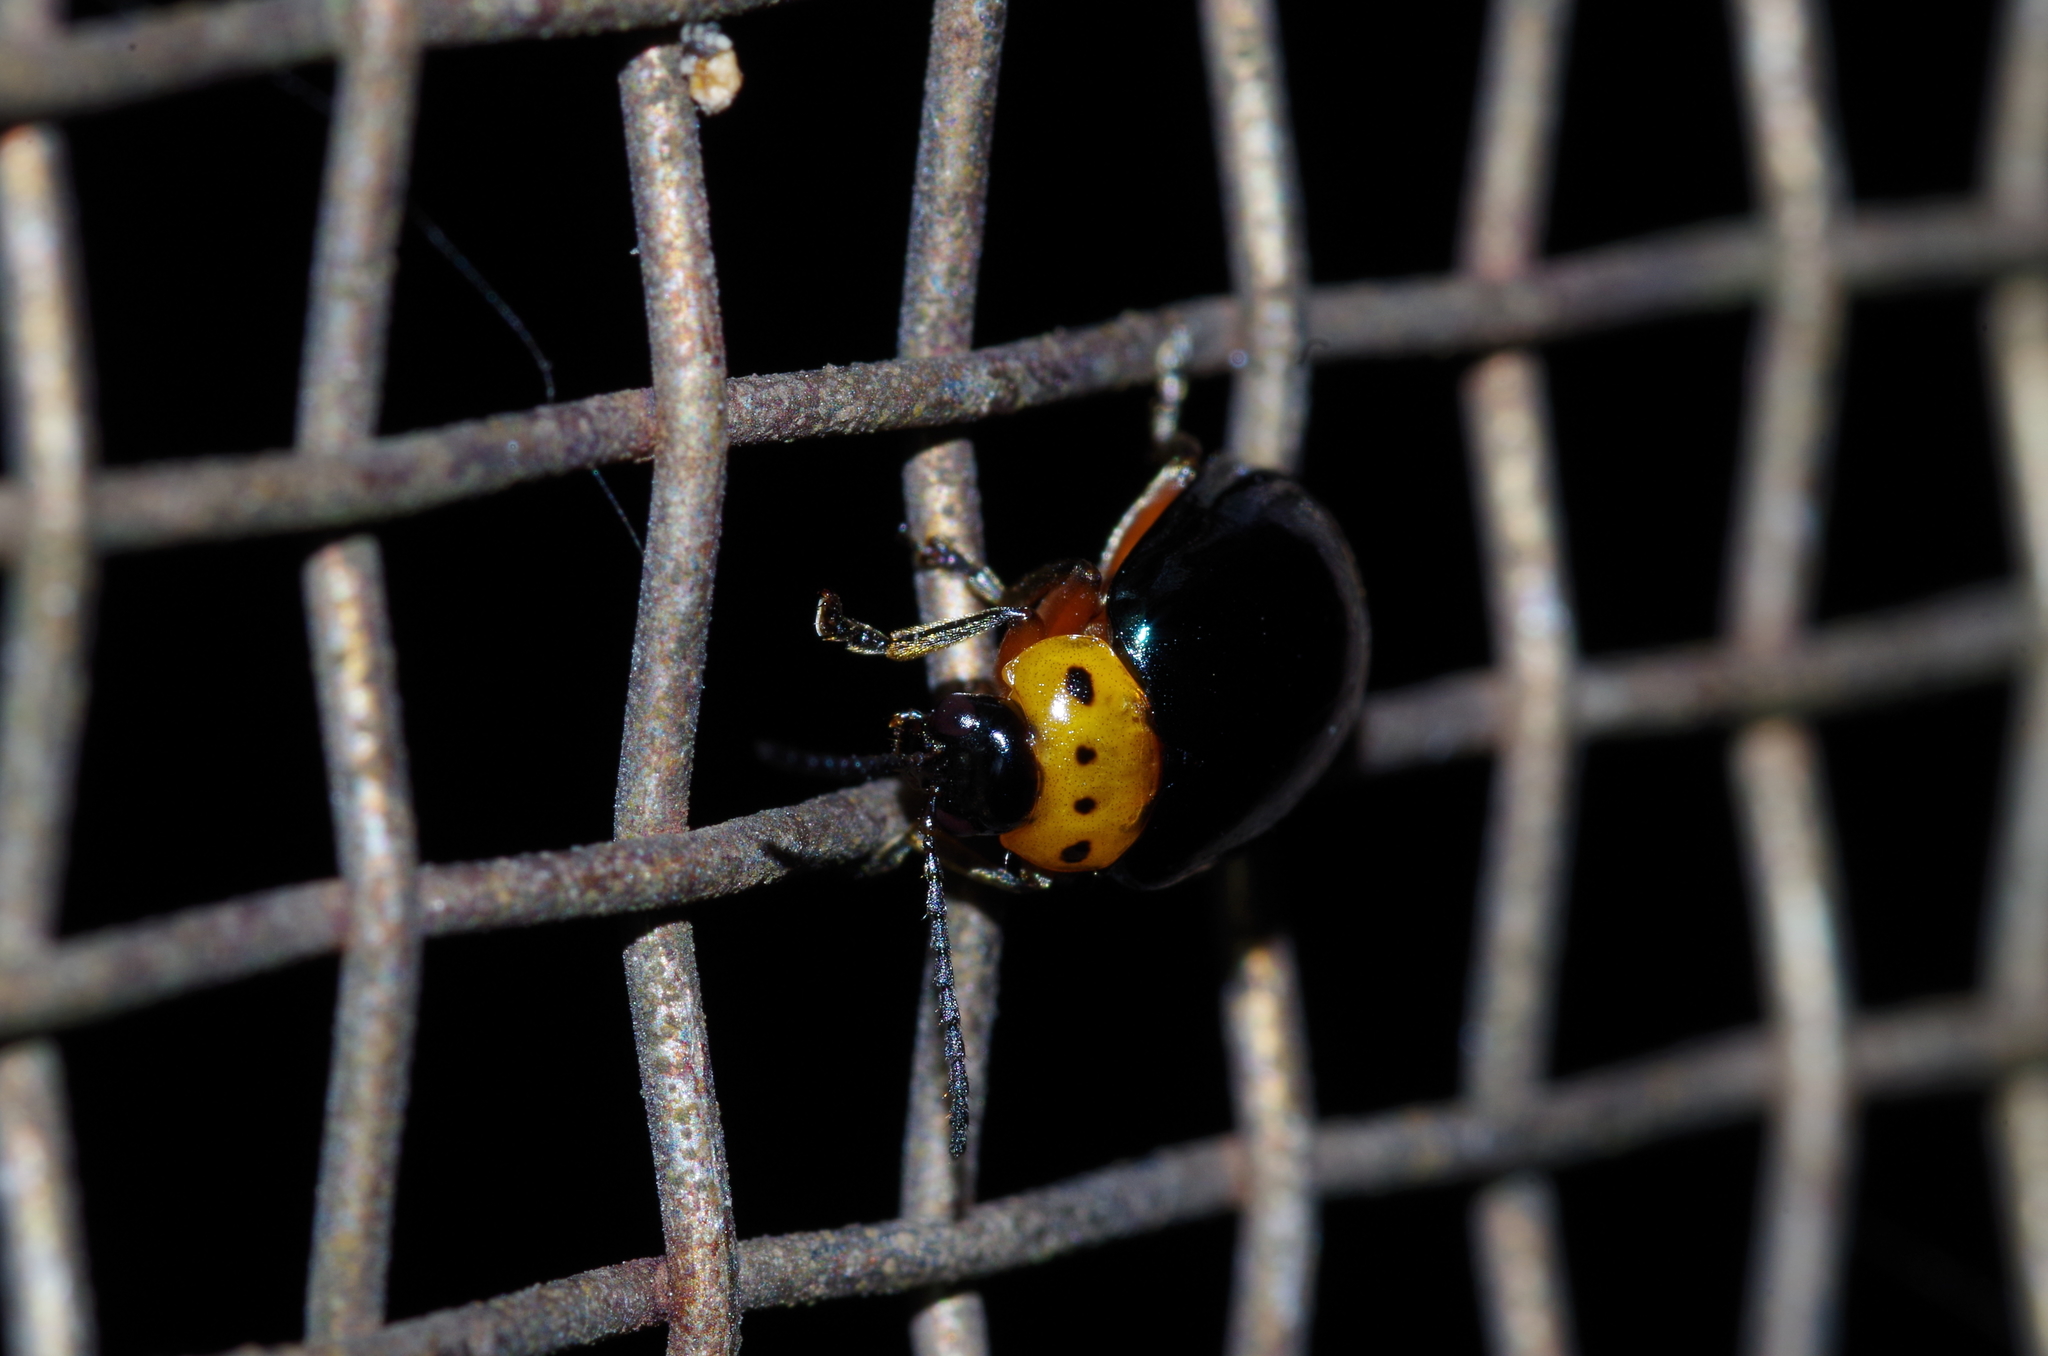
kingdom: Animalia
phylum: Arthropoda
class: Insecta
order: Coleoptera
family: Chrysomelidae
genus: Morphosphaera
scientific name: Morphosphaera caerulea
